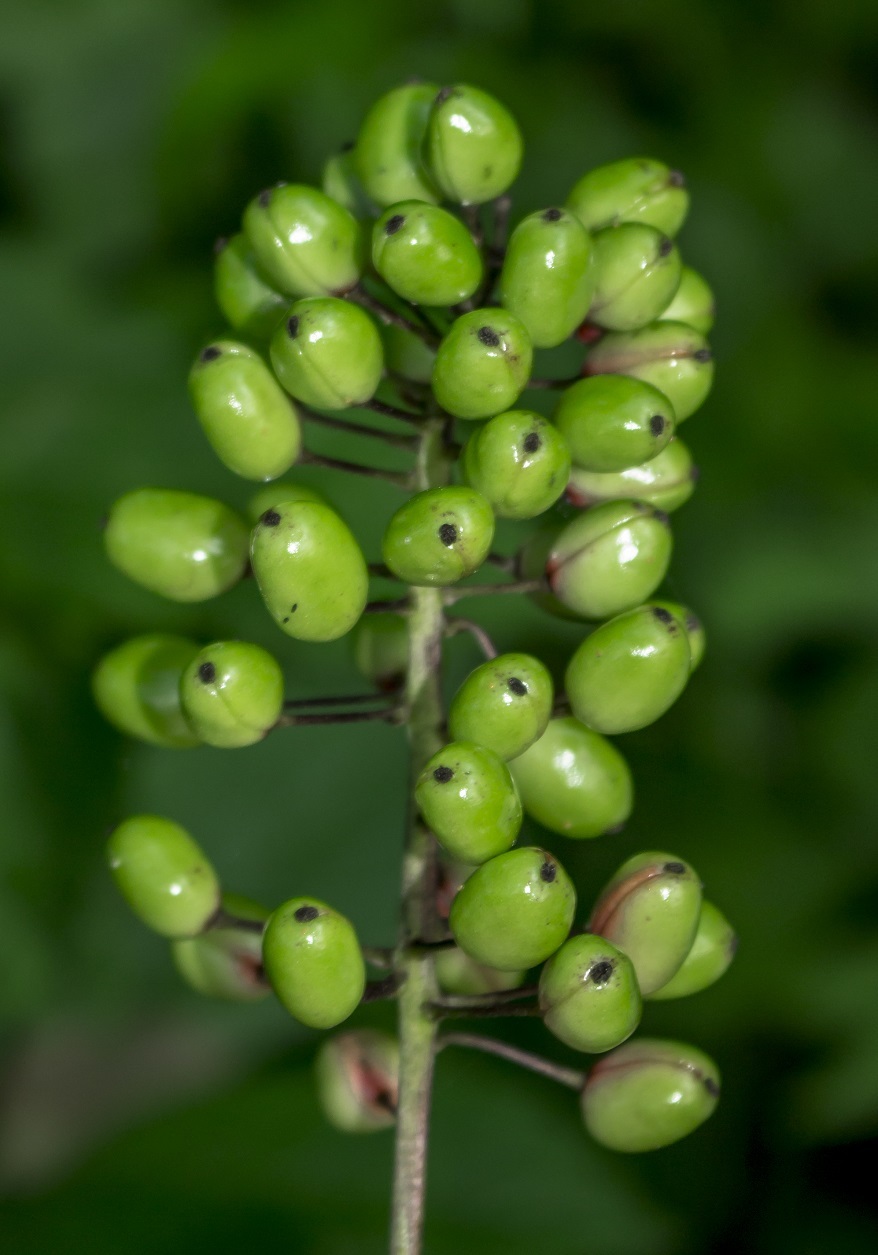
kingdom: Plantae
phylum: Tracheophyta
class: Magnoliopsida
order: Ranunculales
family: Ranunculaceae
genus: Actaea
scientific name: Actaea rubra
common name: Red baneberry
